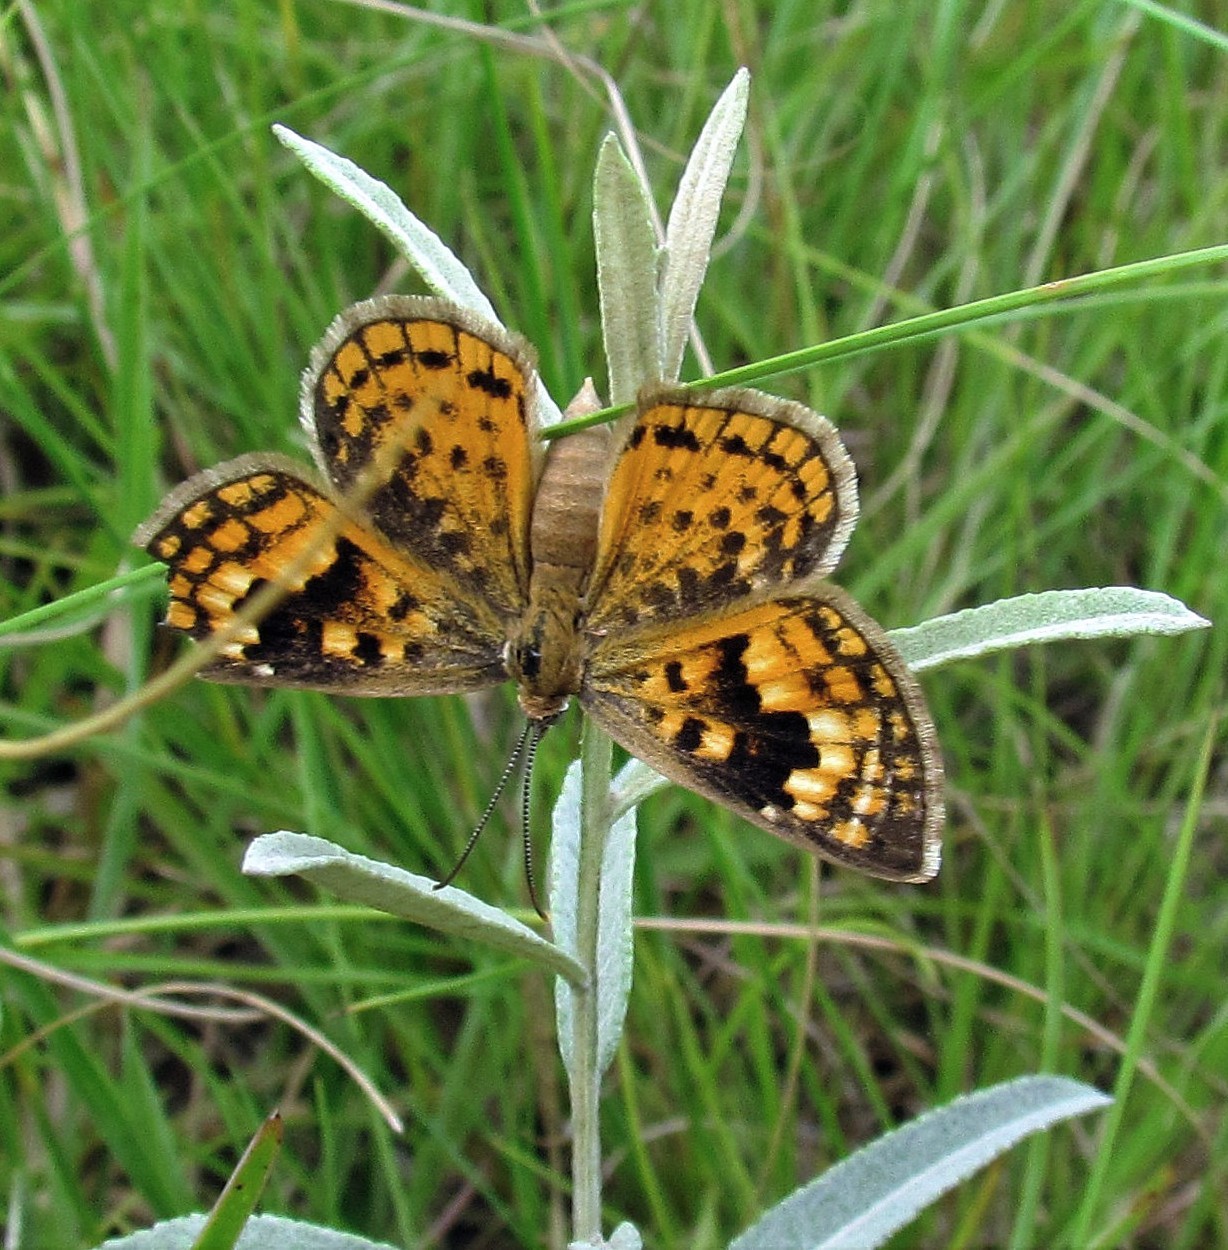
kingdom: Animalia
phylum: Arthropoda
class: Insecta
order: Lepidoptera
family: Lycaenidae
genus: Aricoris
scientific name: Aricoris arenarum
